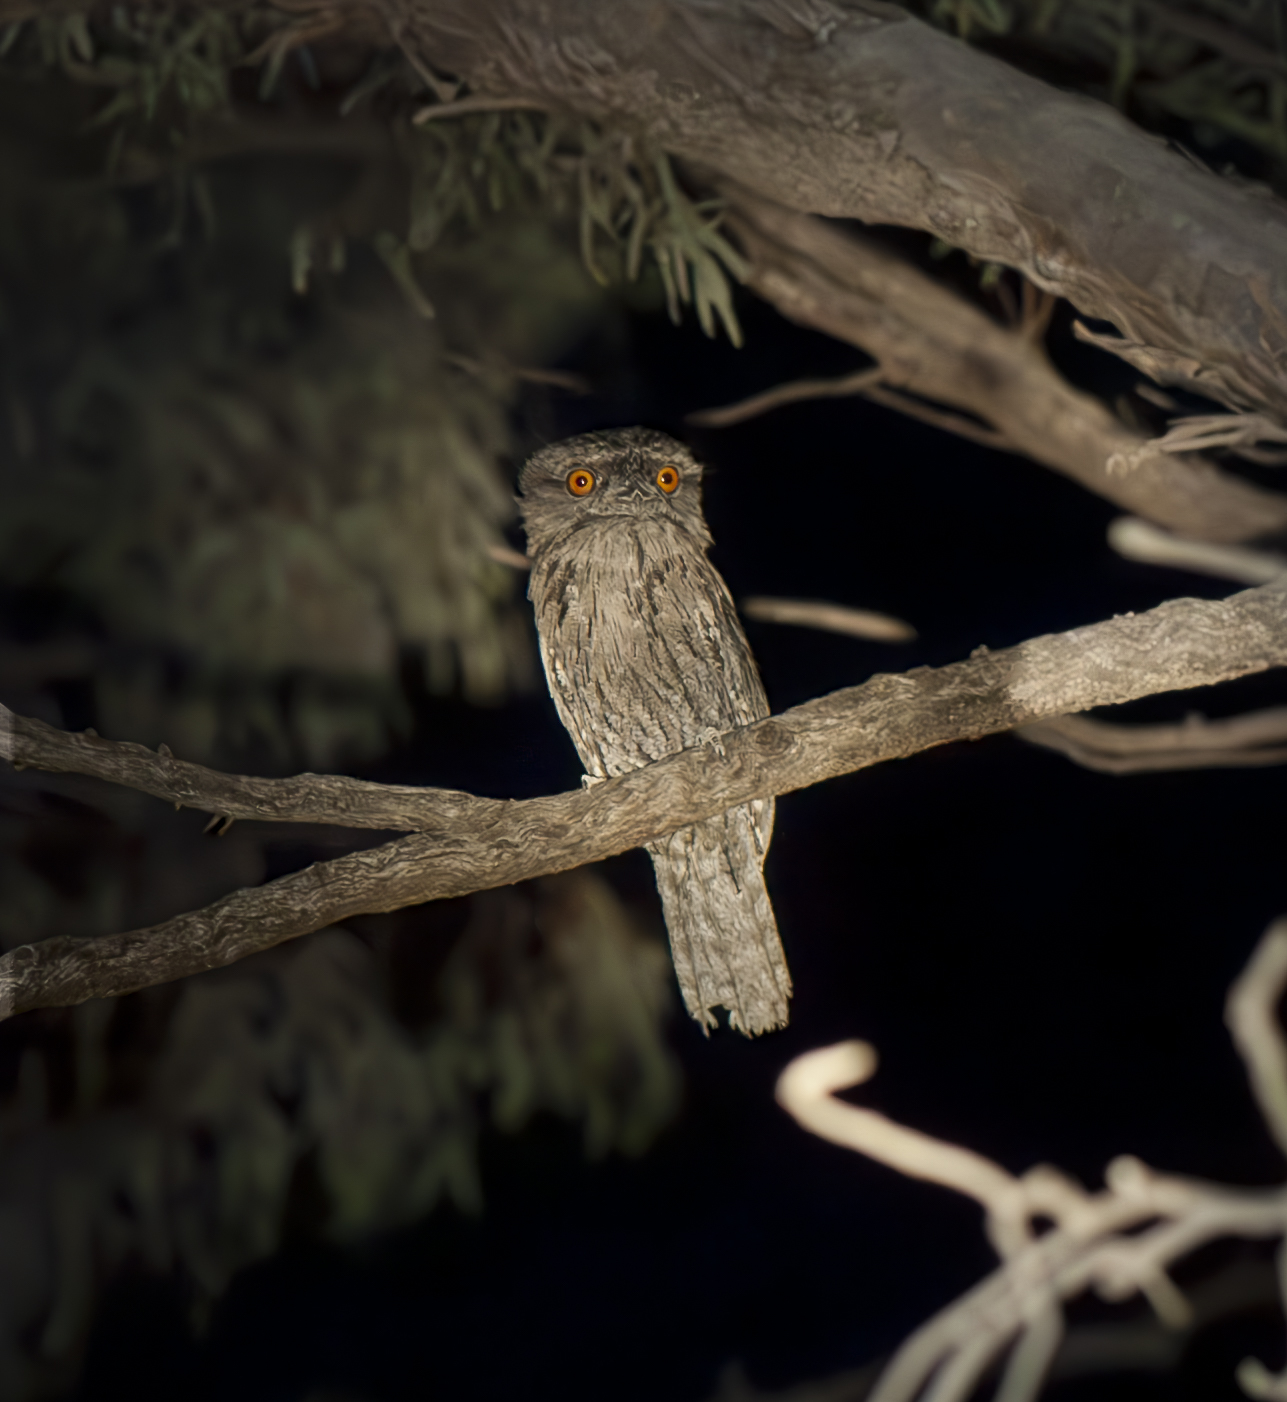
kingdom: Animalia
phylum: Chordata
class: Aves
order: Caprimulgiformes
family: Podargidae
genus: Podargus
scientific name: Podargus strigoides
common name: Tawny frogmouth
